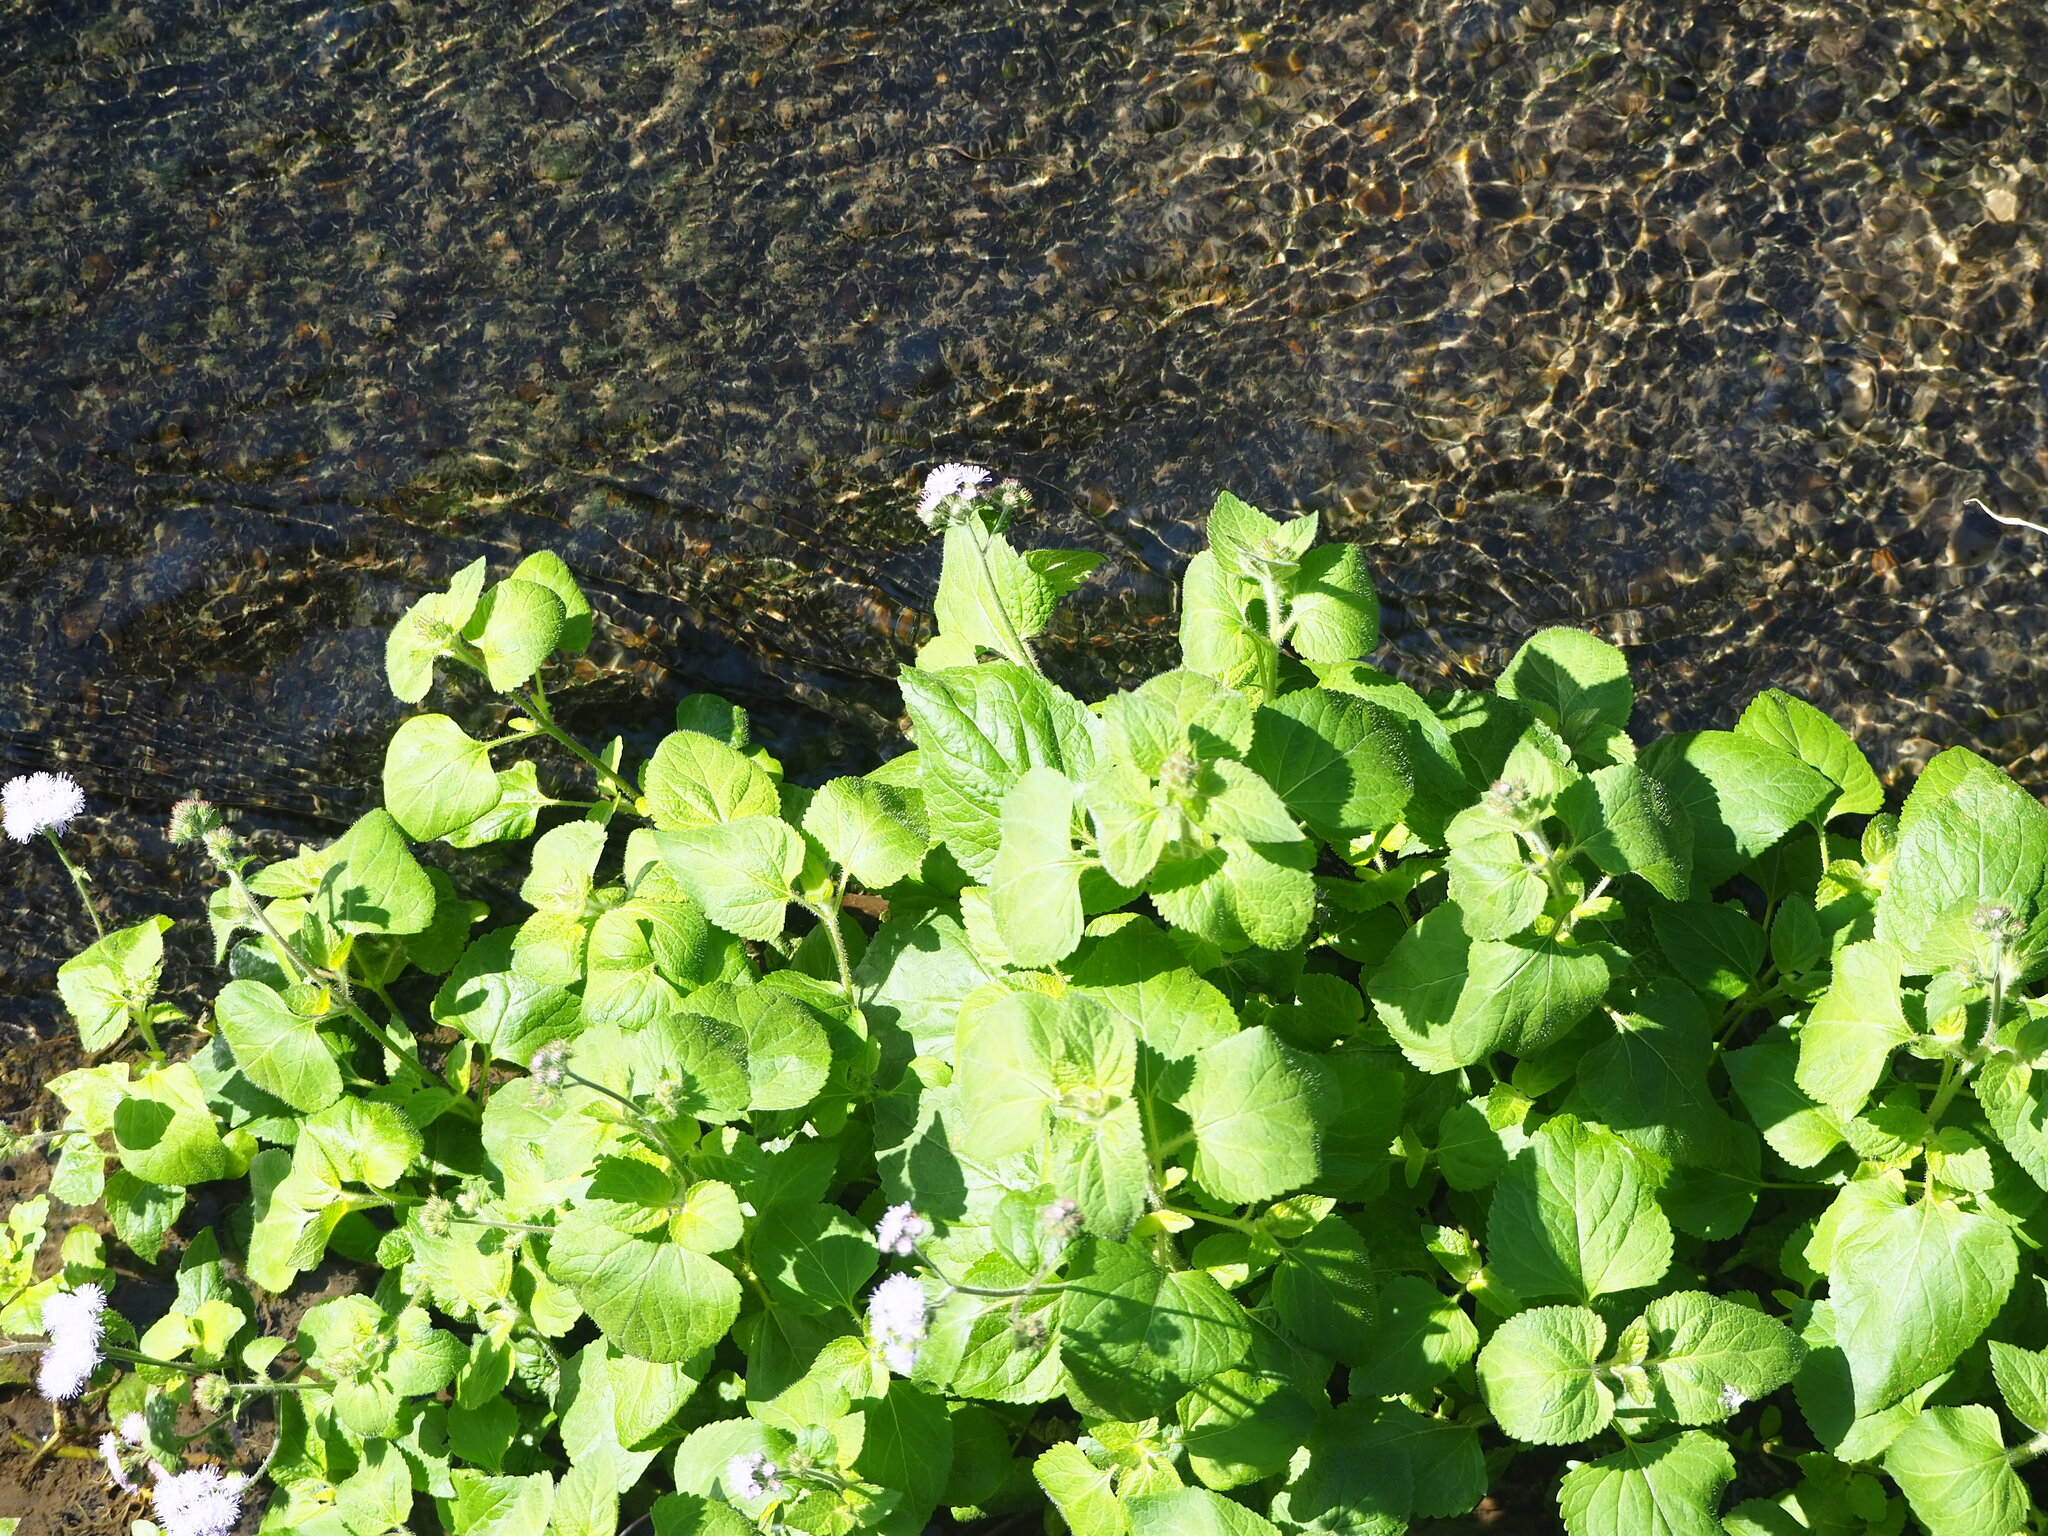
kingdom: Plantae
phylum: Tracheophyta
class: Magnoliopsida
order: Asterales
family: Asteraceae
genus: Ageratum
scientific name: Ageratum houstonianum
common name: Bluemink
